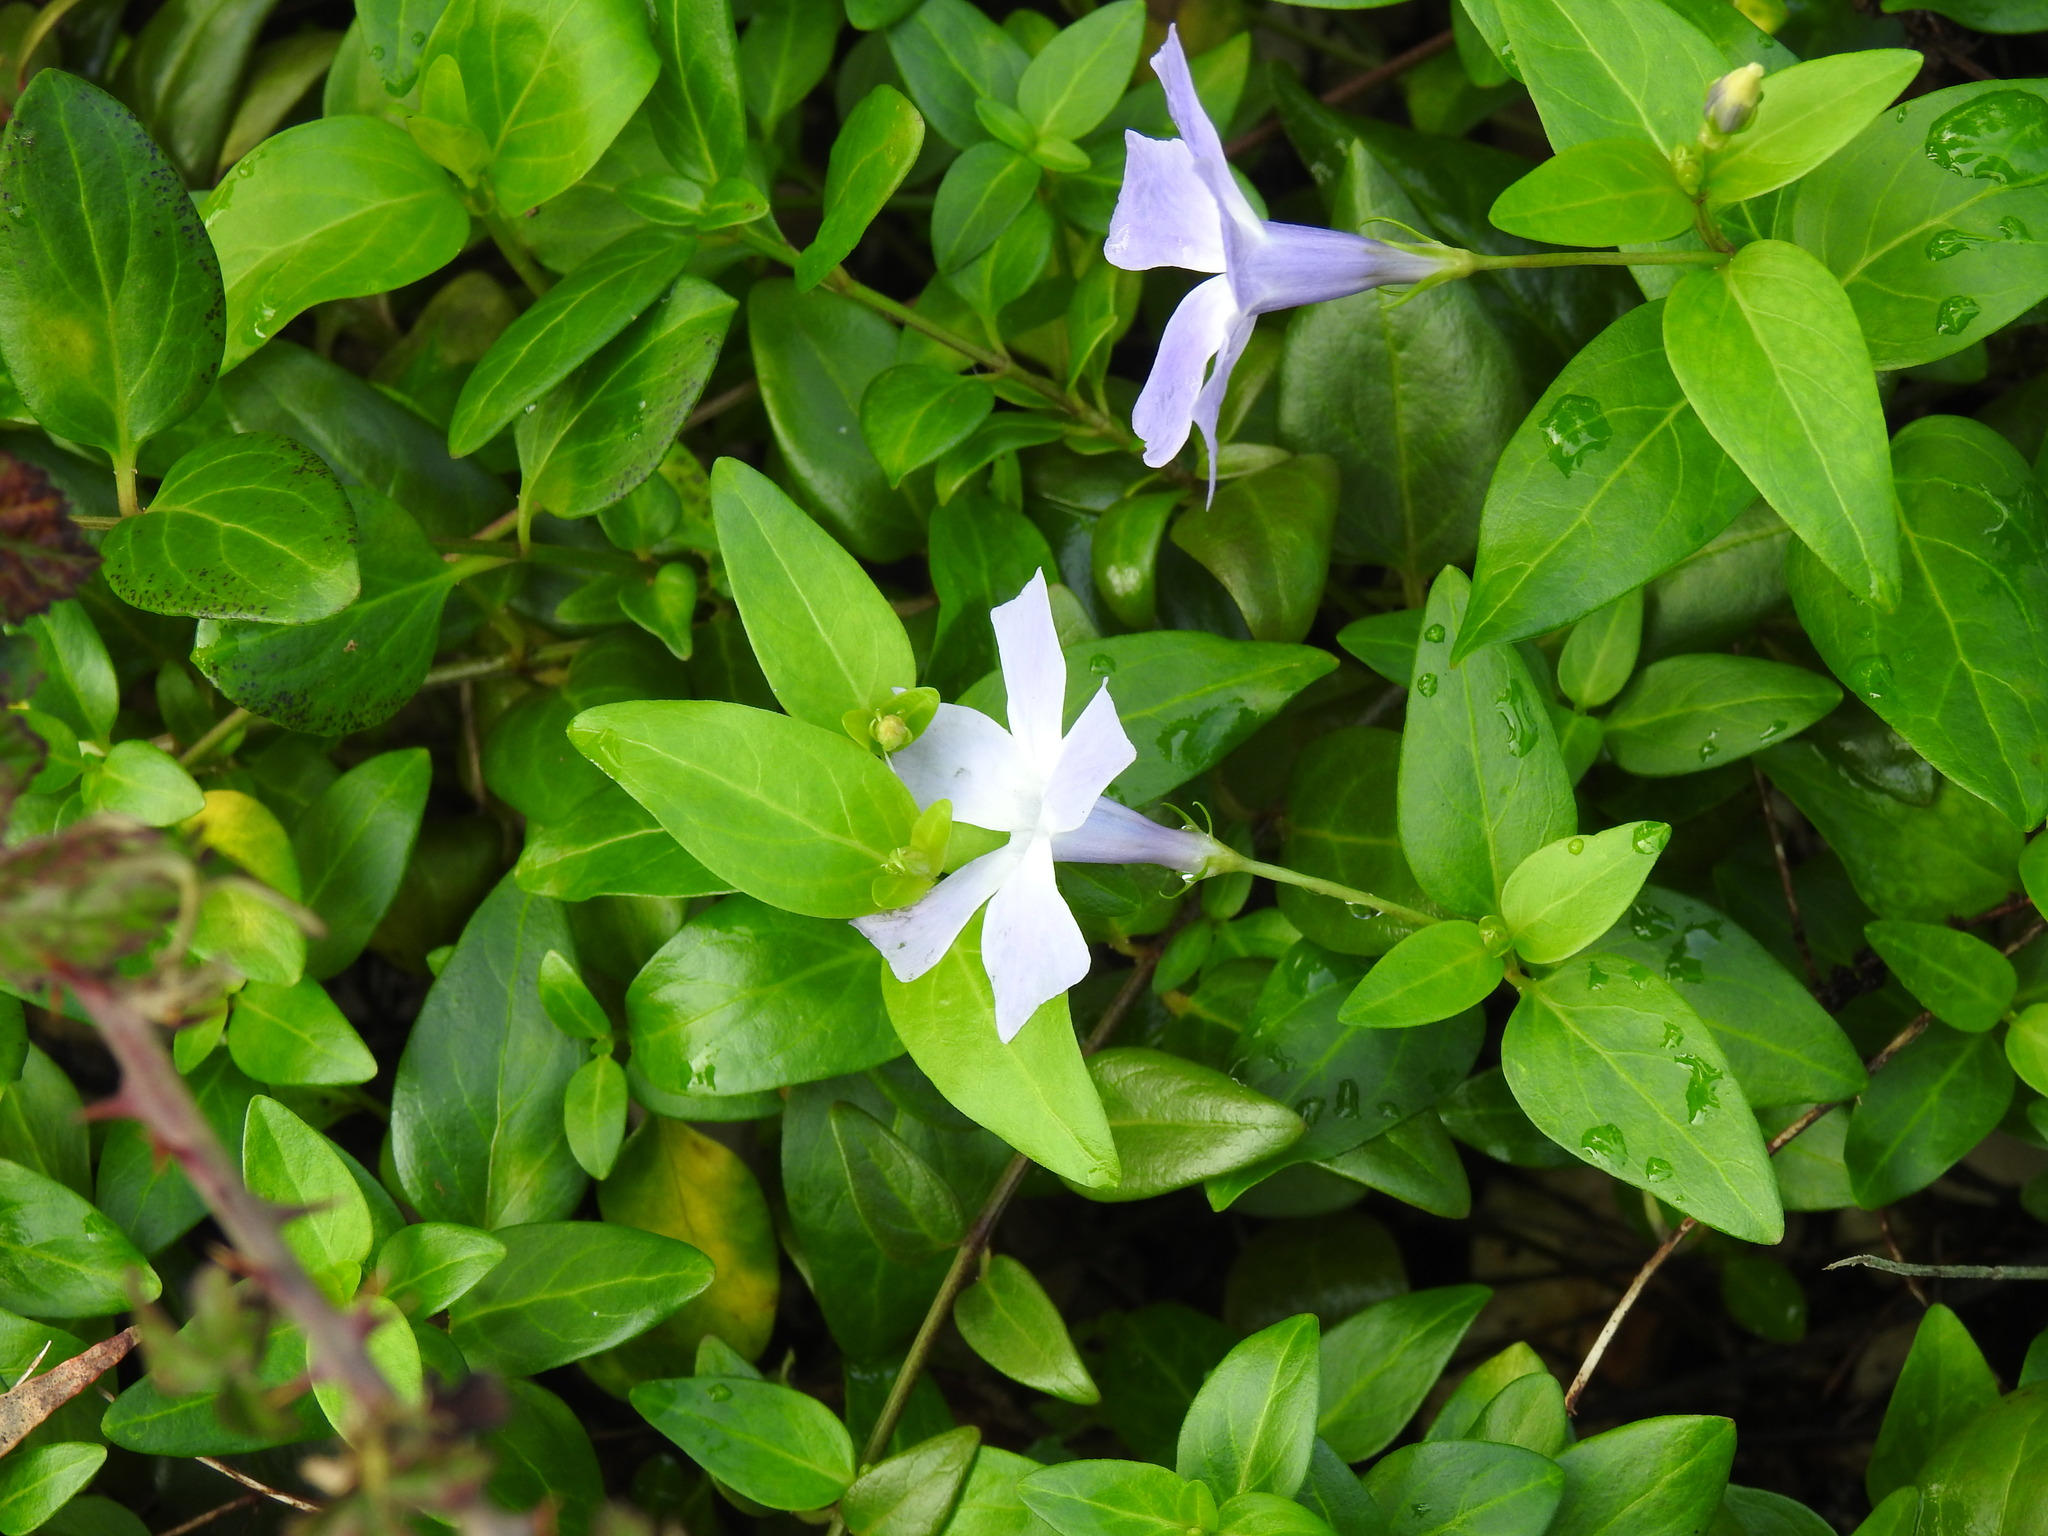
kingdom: Plantae
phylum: Tracheophyta
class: Magnoliopsida
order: Gentianales
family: Apocynaceae
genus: Vinca
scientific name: Vinca difformis
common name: Intermediate periwinkle
